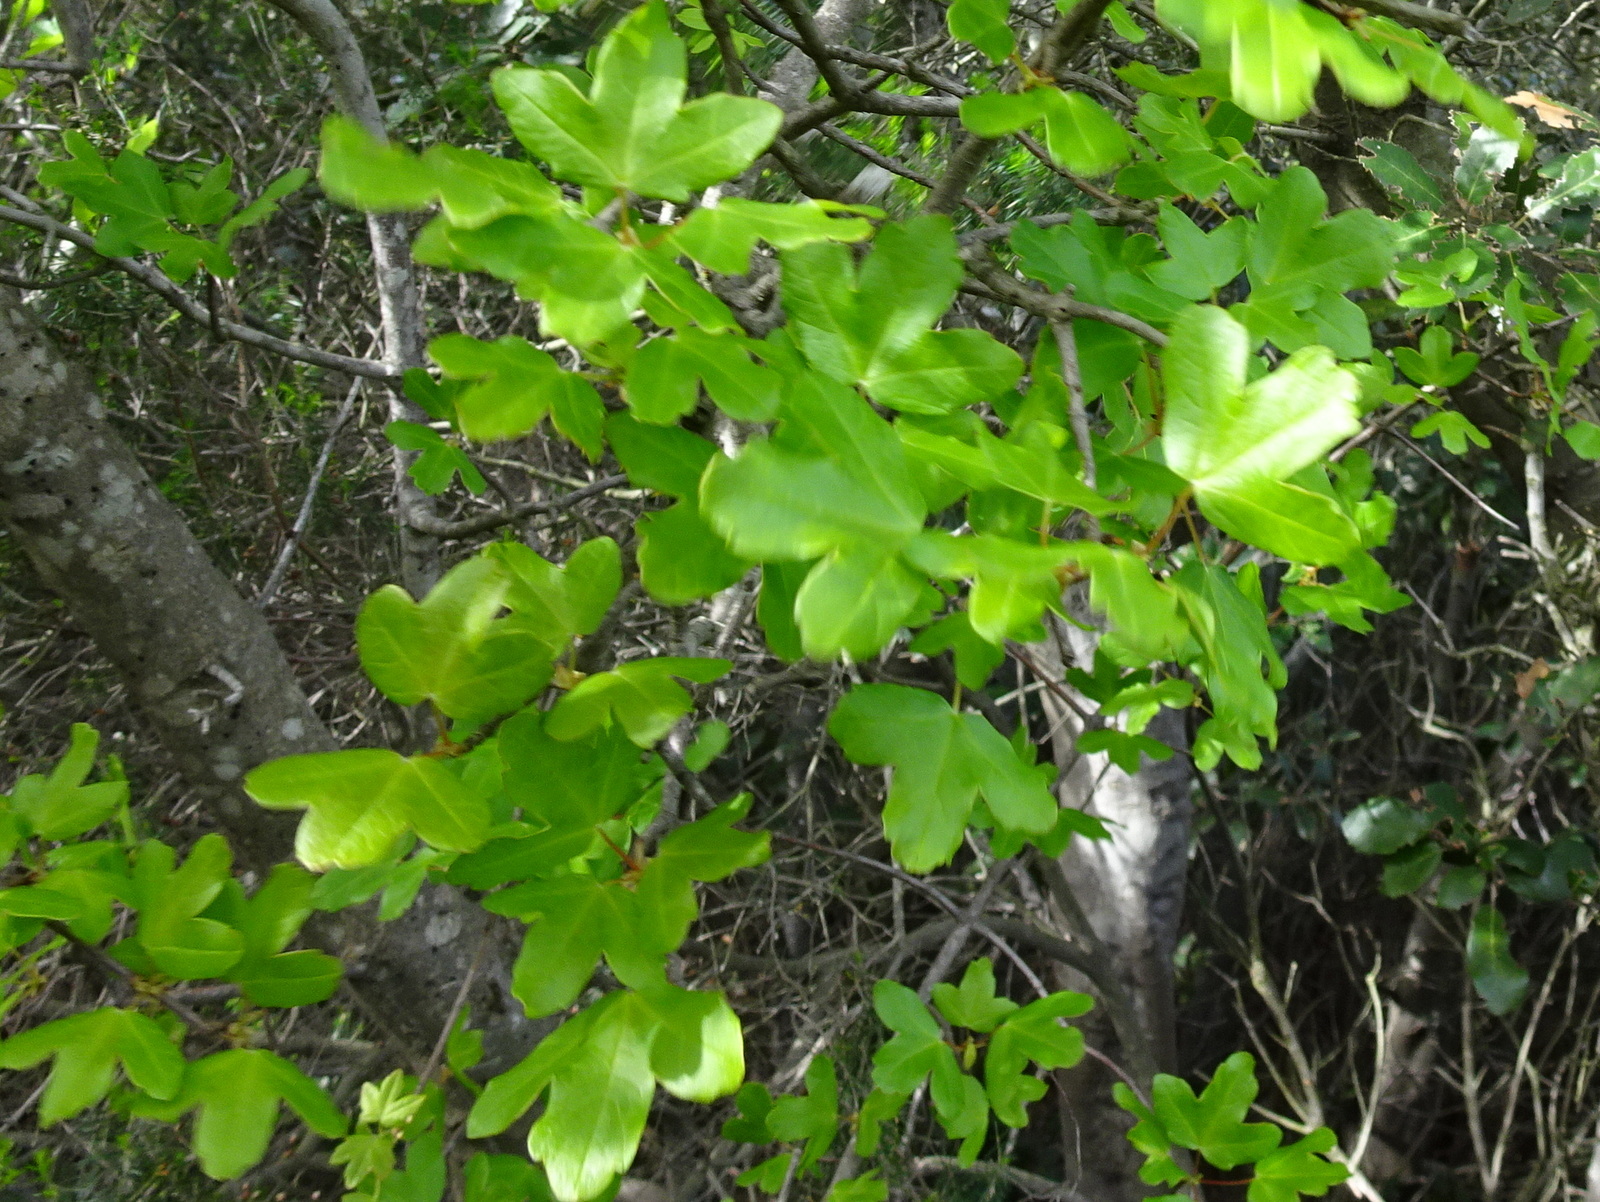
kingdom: Plantae
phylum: Tracheophyta
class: Magnoliopsida
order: Sapindales
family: Sapindaceae
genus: Acer
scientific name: Acer monspessulanum
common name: Montpellier maple
